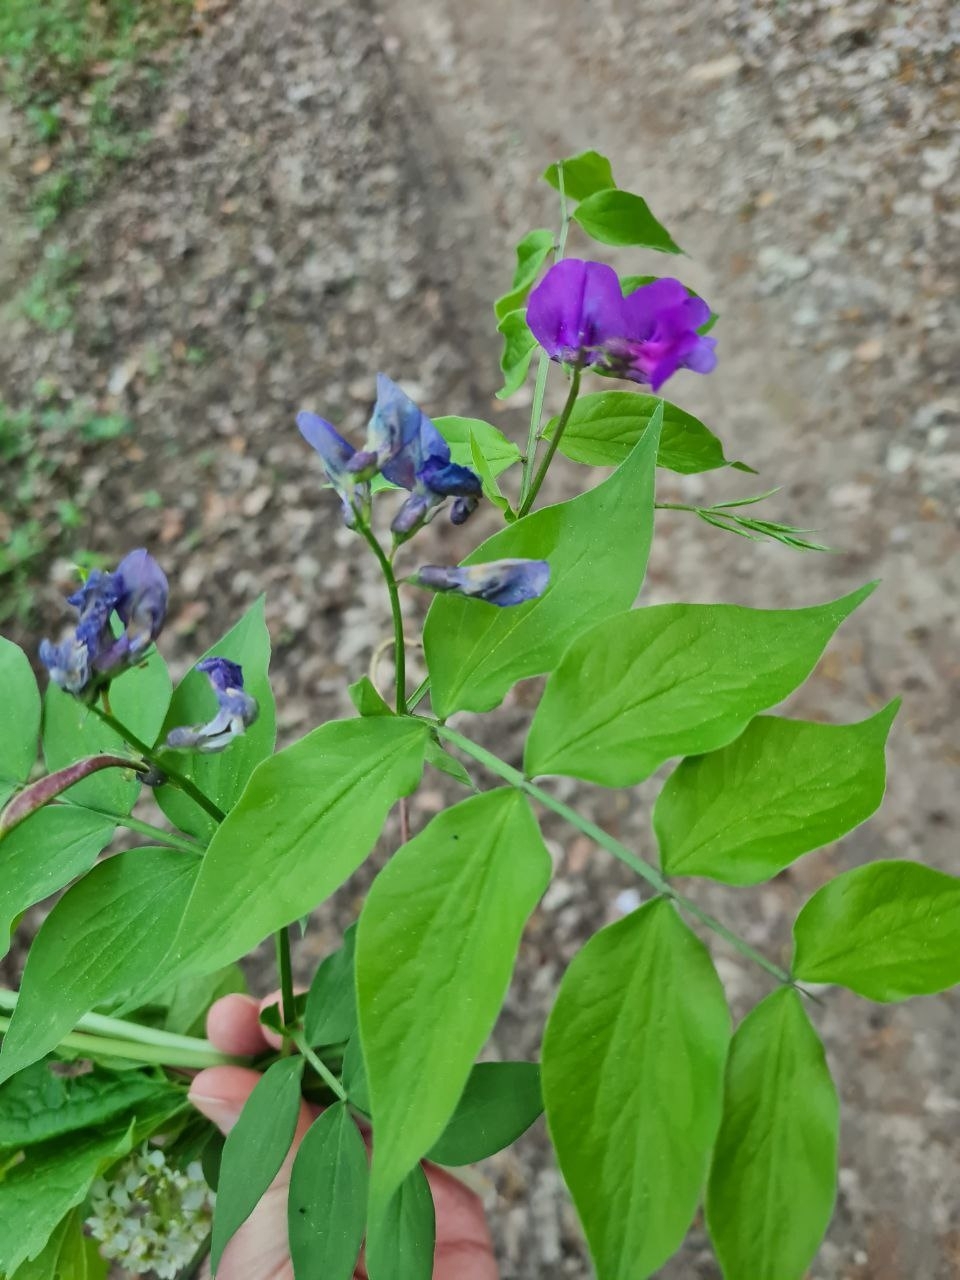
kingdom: Plantae
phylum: Tracheophyta
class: Magnoliopsida
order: Fabales
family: Fabaceae
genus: Lathyrus
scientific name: Lathyrus vernus
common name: Spring pea
